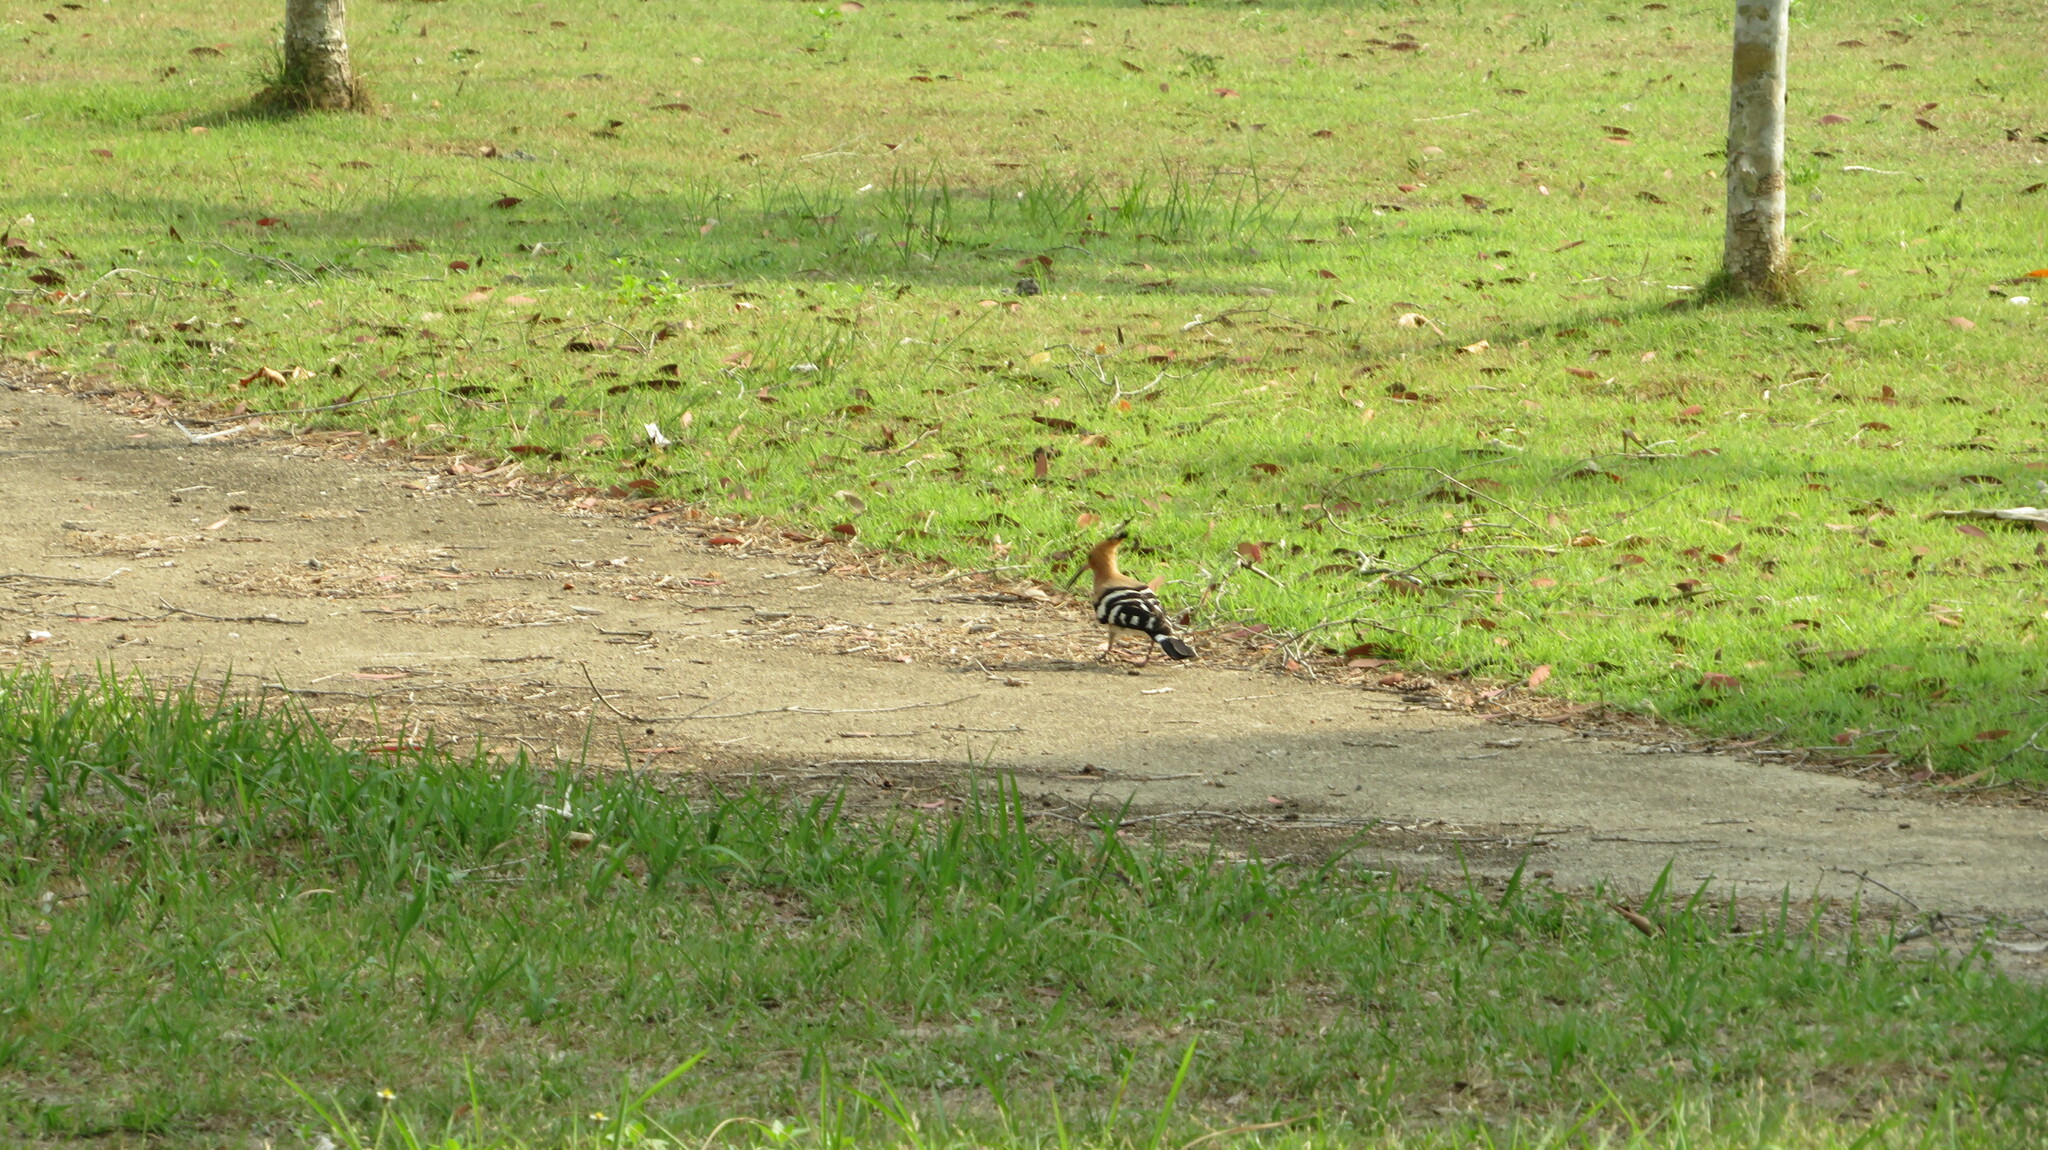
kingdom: Animalia
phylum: Chordata
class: Aves
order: Bucerotiformes
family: Upupidae
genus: Upupa
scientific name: Upupa epops
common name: Eurasian hoopoe
